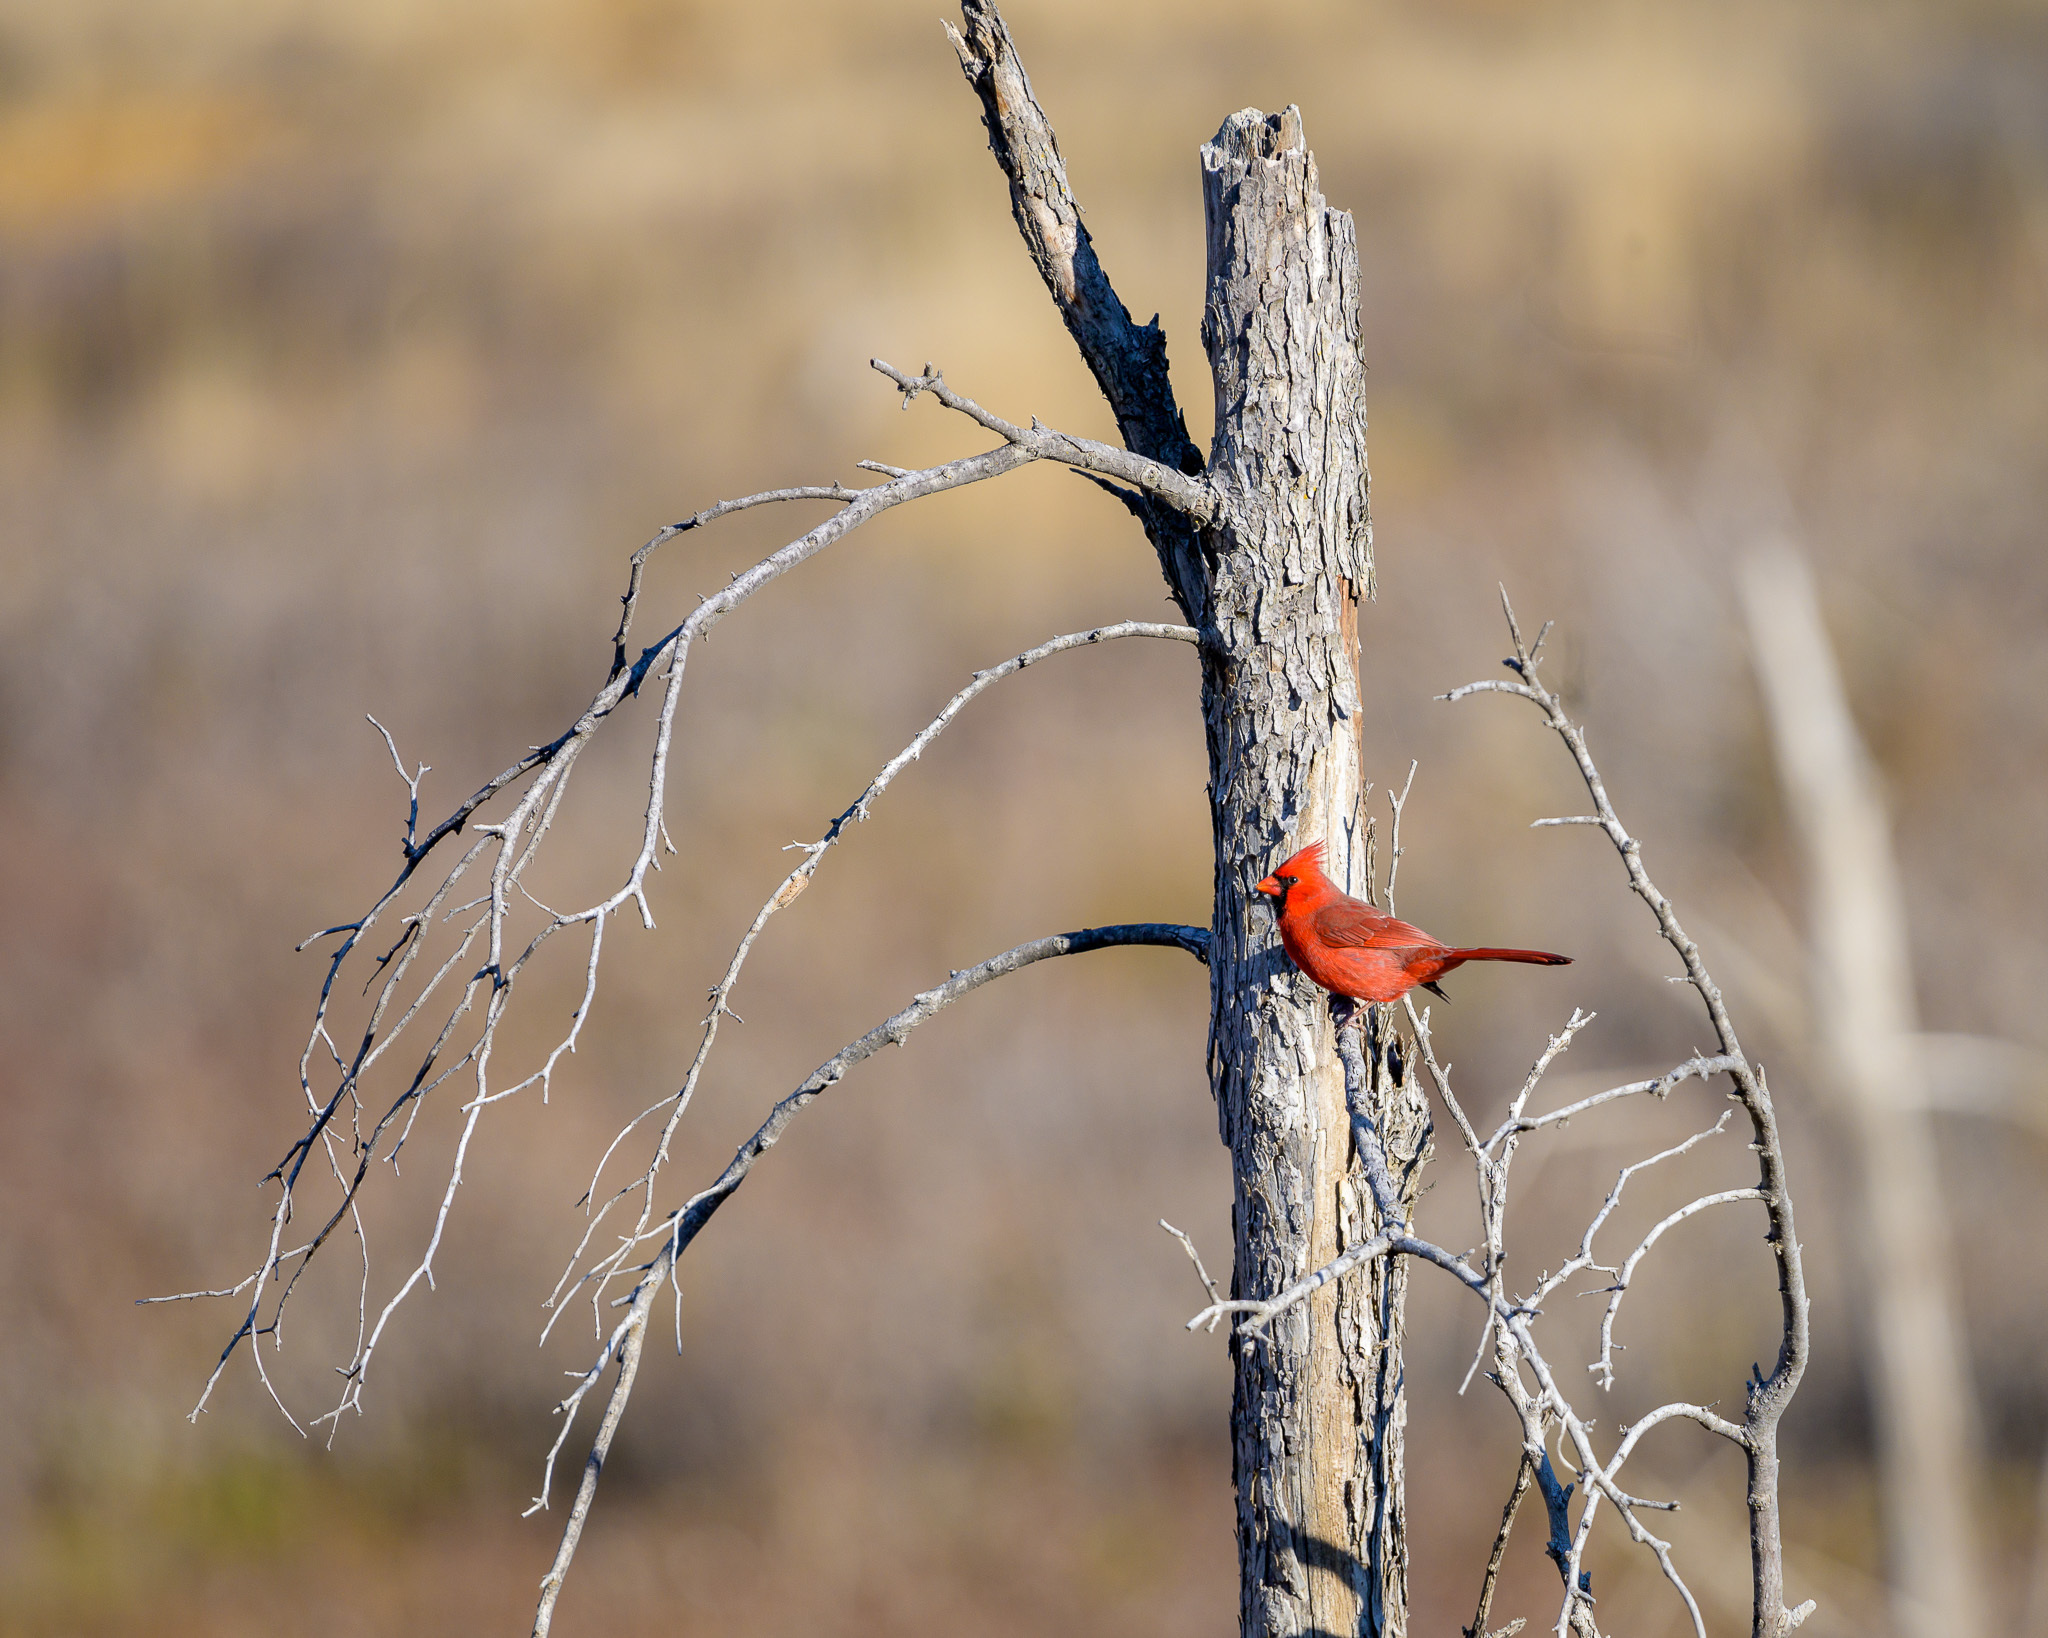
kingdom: Animalia
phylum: Chordata
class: Aves
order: Passeriformes
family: Cardinalidae
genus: Cardinalis
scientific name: Cardinalis cardinalis
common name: Northern cardinal
